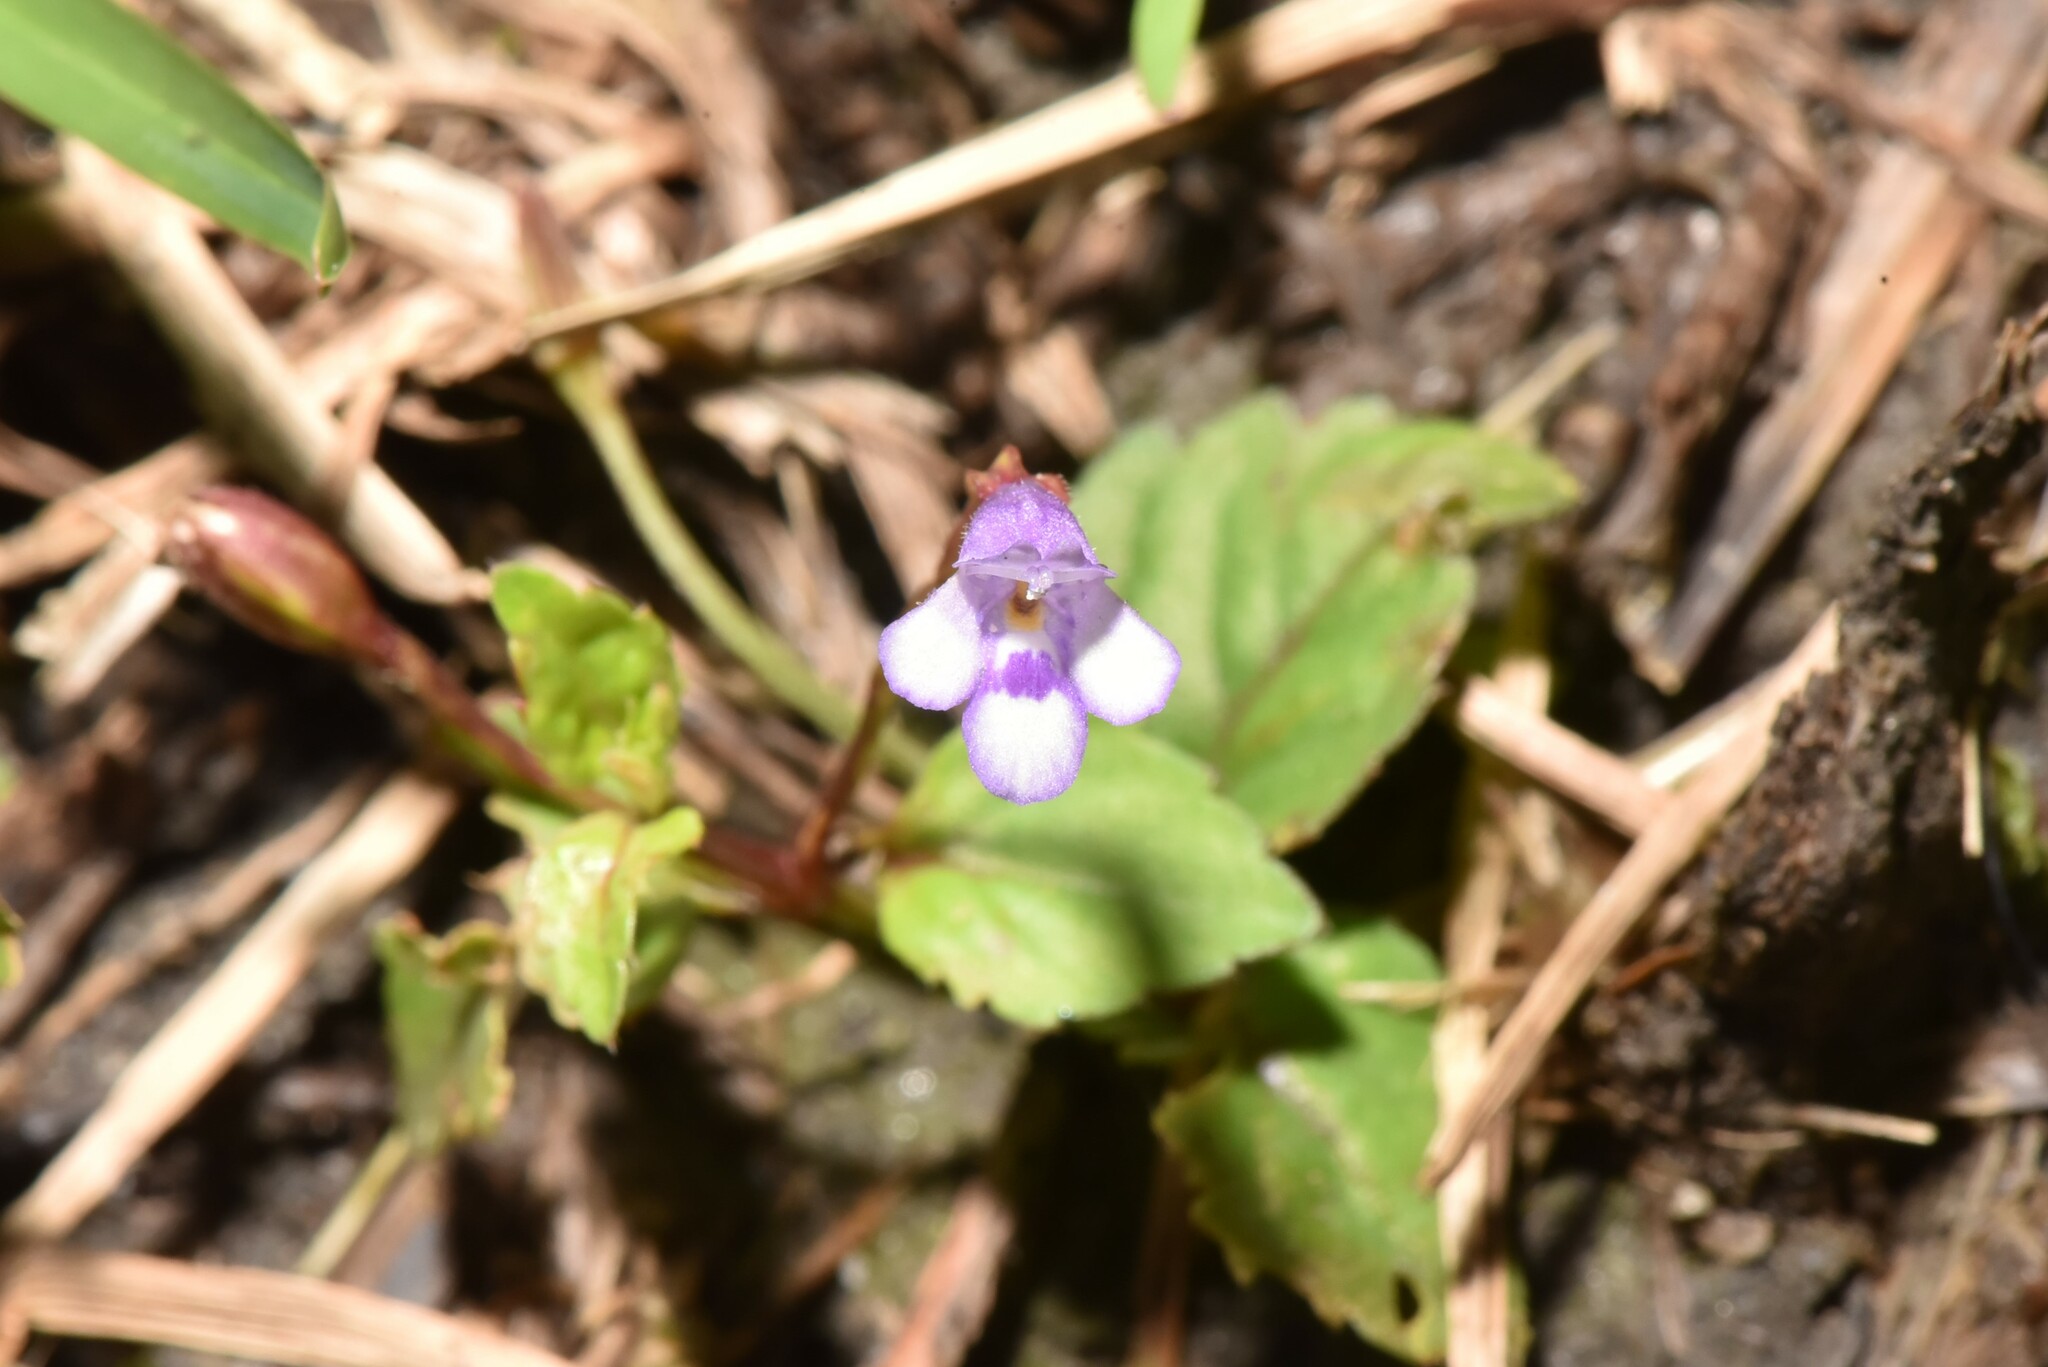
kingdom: Plantae
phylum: Tracheophyta
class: Magnoliopsida
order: Lamiales
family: Linderniaceae
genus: Torenia
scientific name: Torenia crustacea
